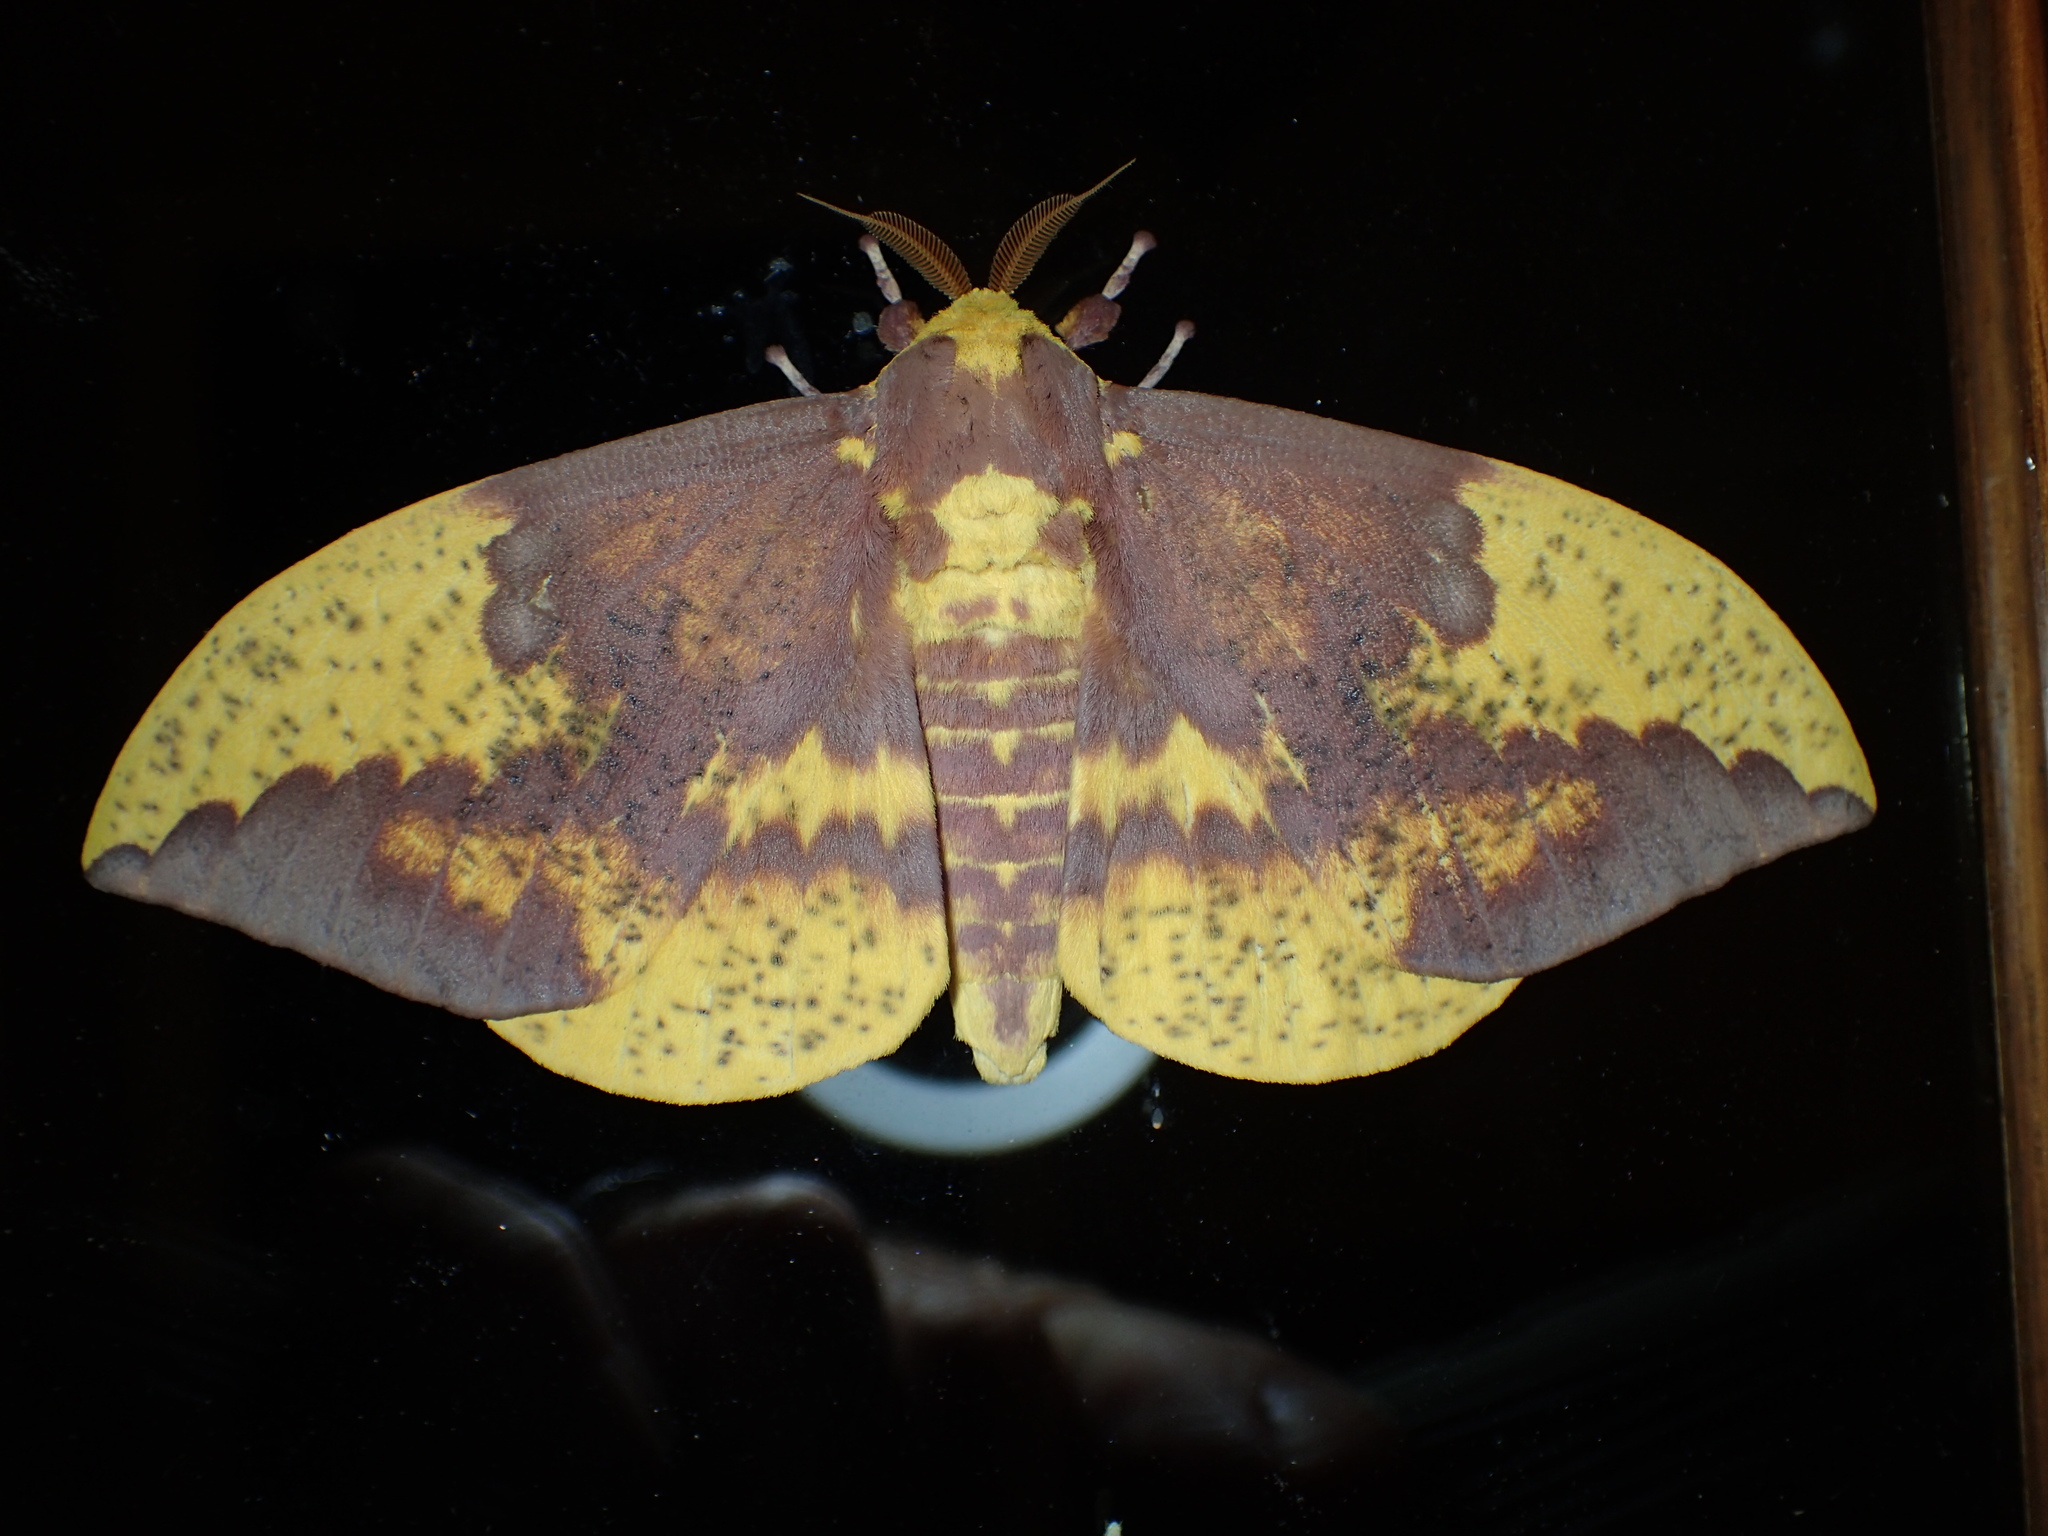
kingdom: Animalia
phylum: Arthropoda
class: Insecta
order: Lepidoptera
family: Saturniidae
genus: Eacles
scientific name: Eacles imperialis
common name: Imperial moth
